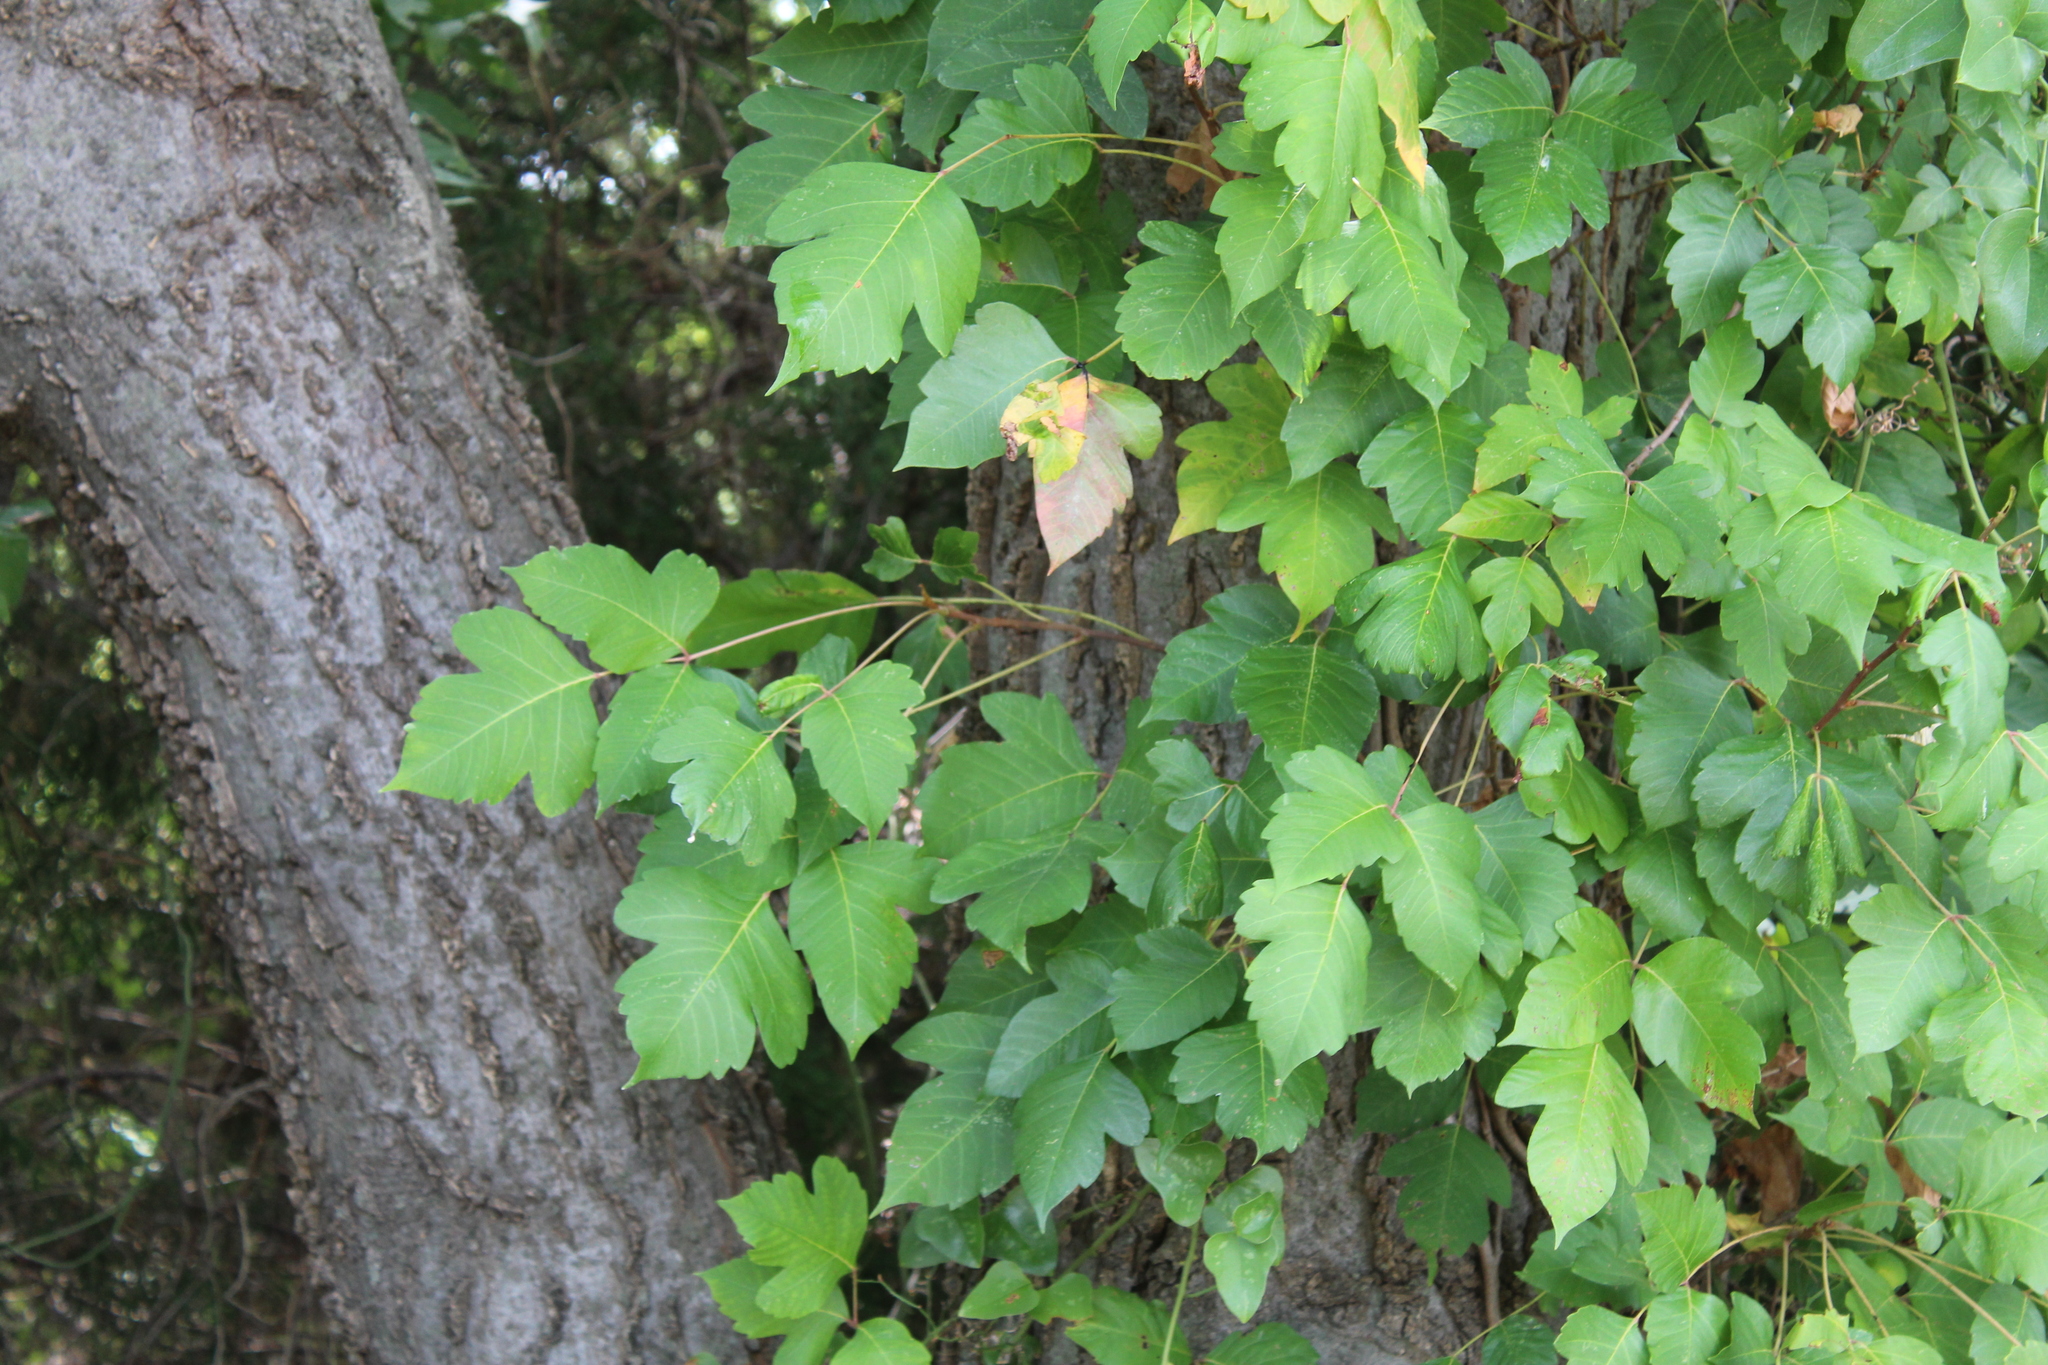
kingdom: Plantae
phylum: Tracheophyta
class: Magnoliopsida
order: Sapindales
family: Anacardiaceae
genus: Toxicodendron
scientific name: Toxicodendron radicans
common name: Poison ivy
